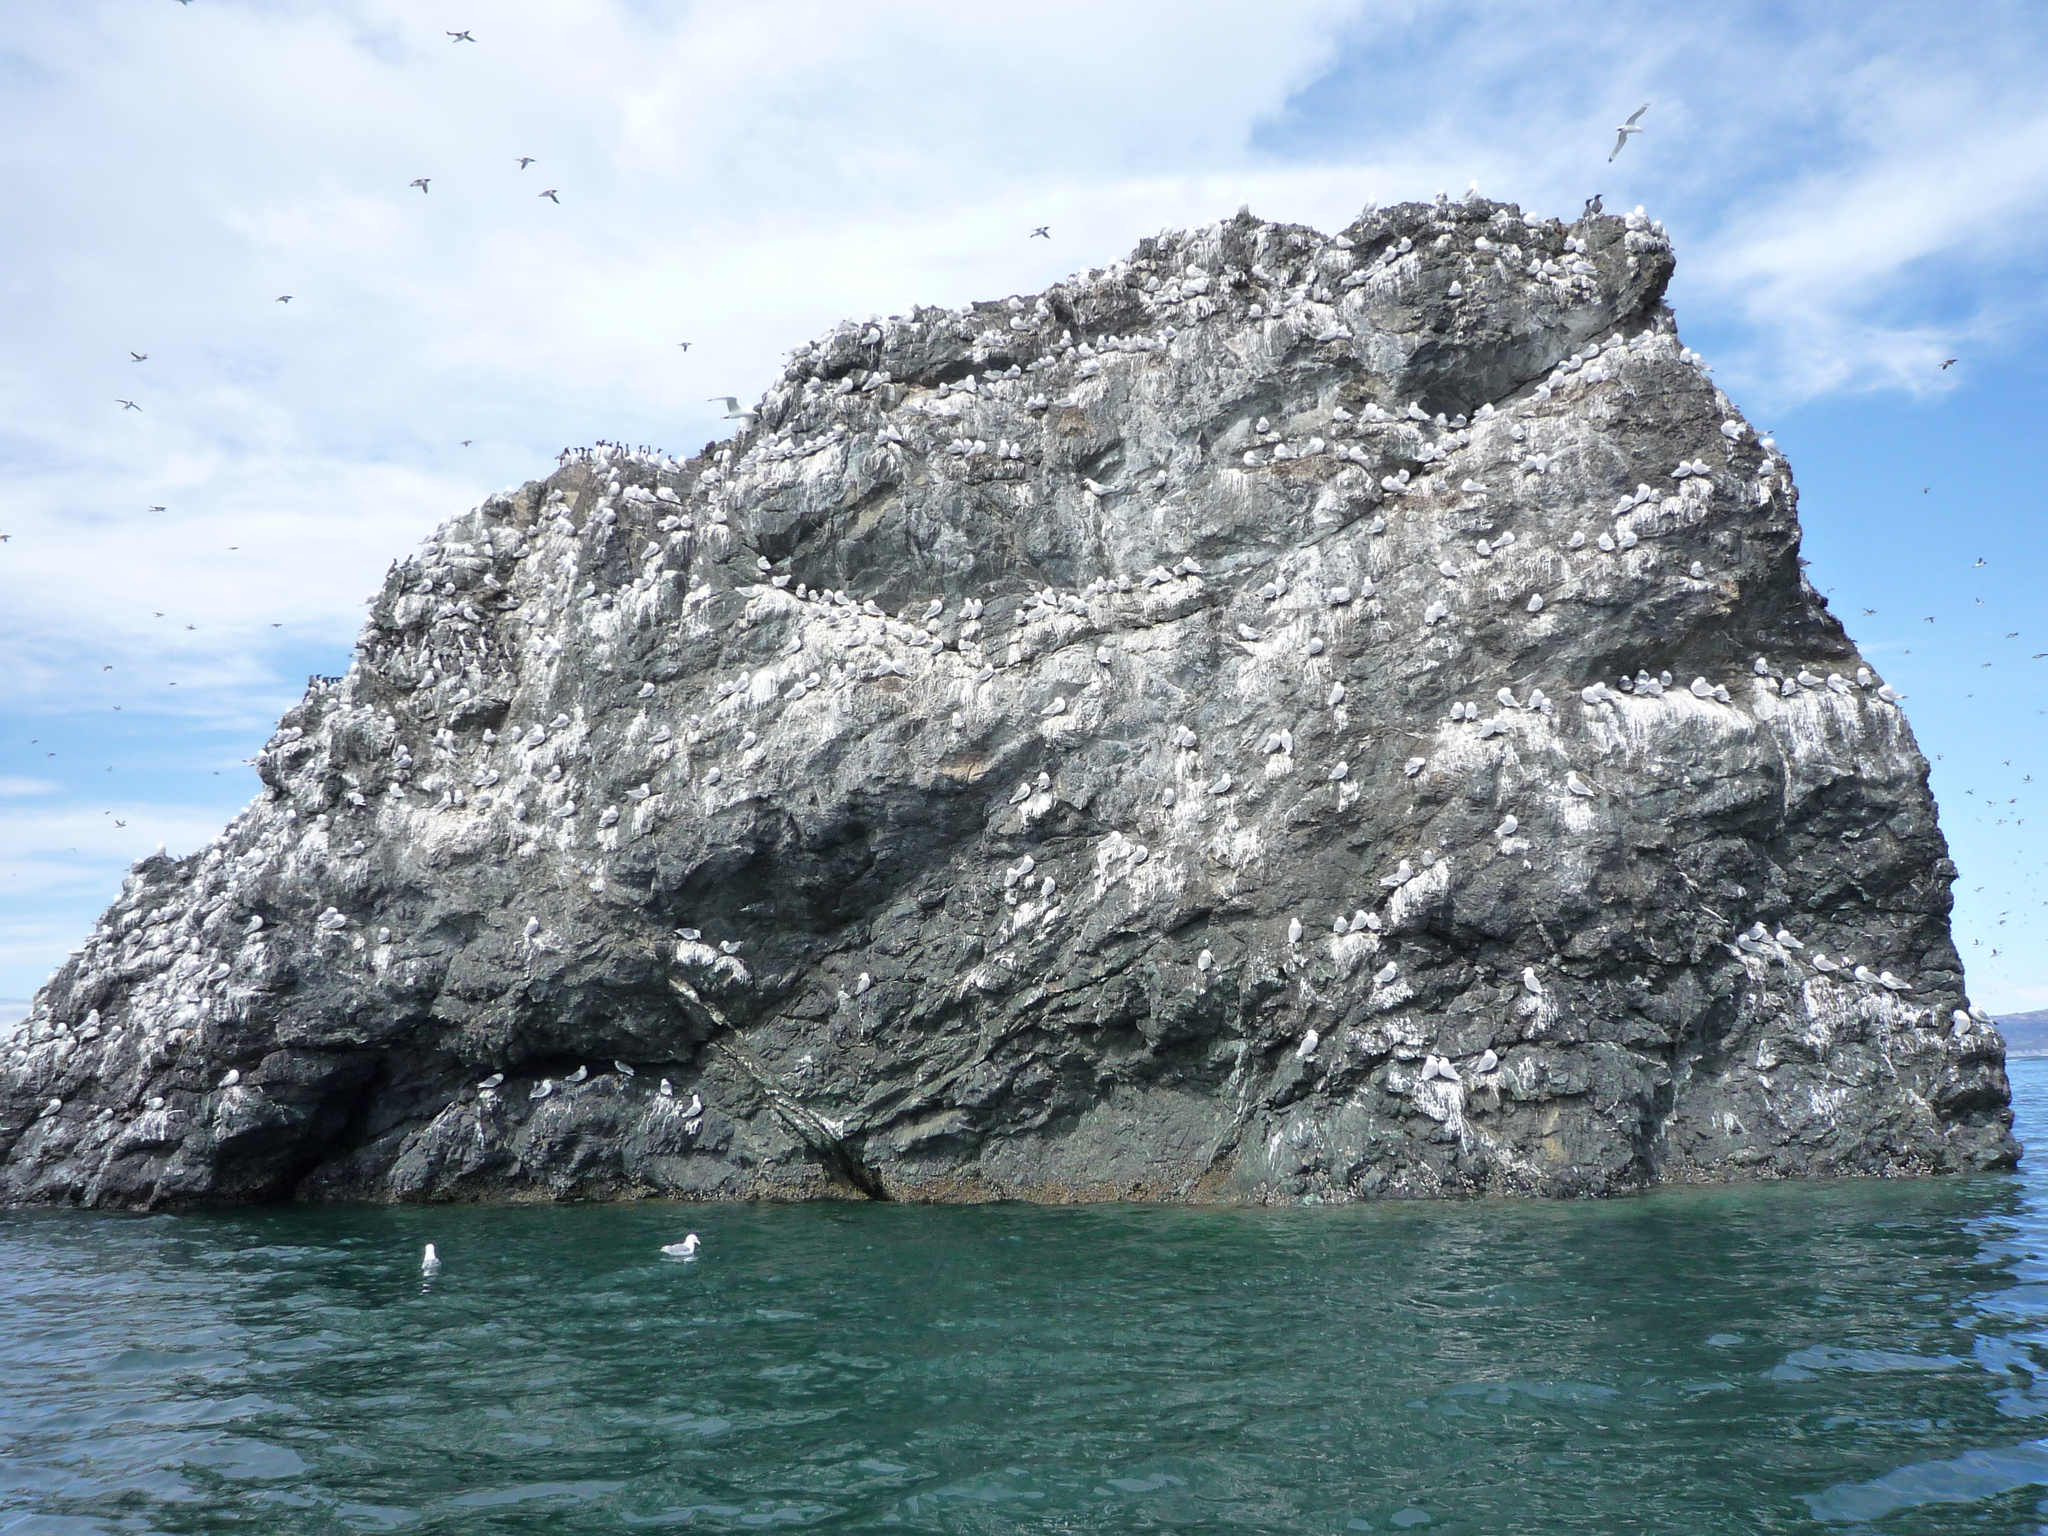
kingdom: Animalia
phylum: Chordata
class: Aves
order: Charadriiformes
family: Laridae
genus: Rissa
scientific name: Rissa tridactyla
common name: Black-legged kittiwake
